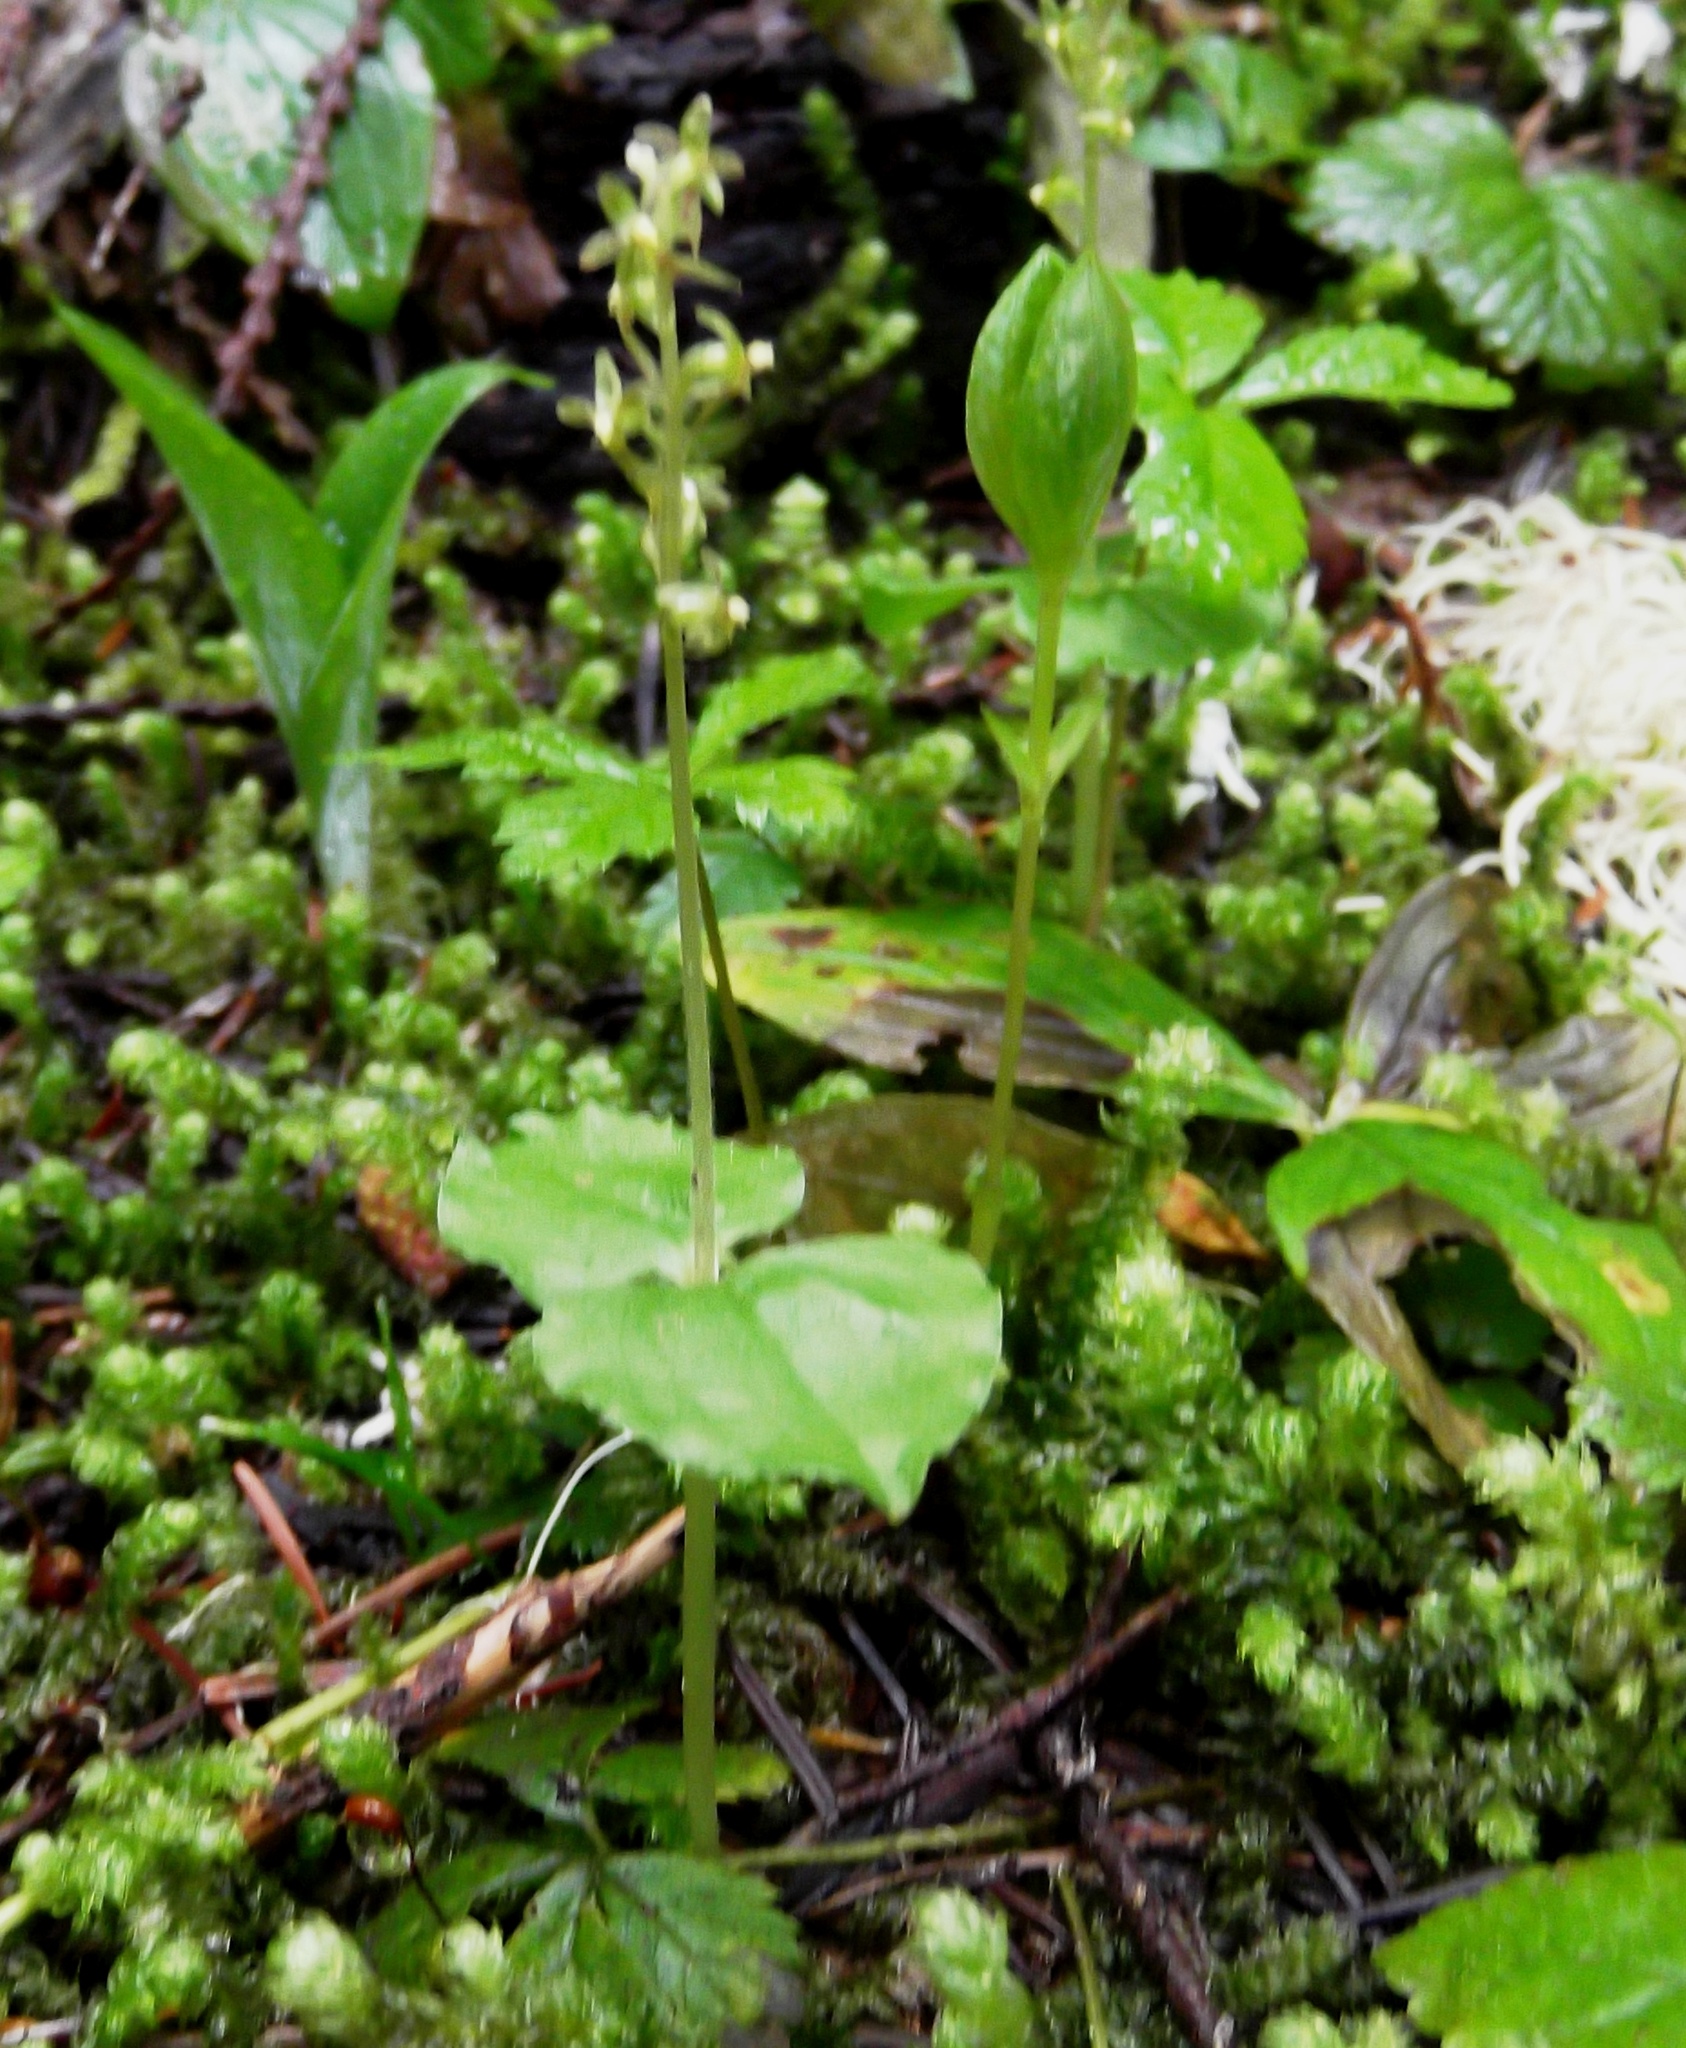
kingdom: Plantae
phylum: Tracheophyta
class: Liliopsida
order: Asparagales
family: Orchidaceae
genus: Neottia
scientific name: Neottia cordata
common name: Lesser twayblade
